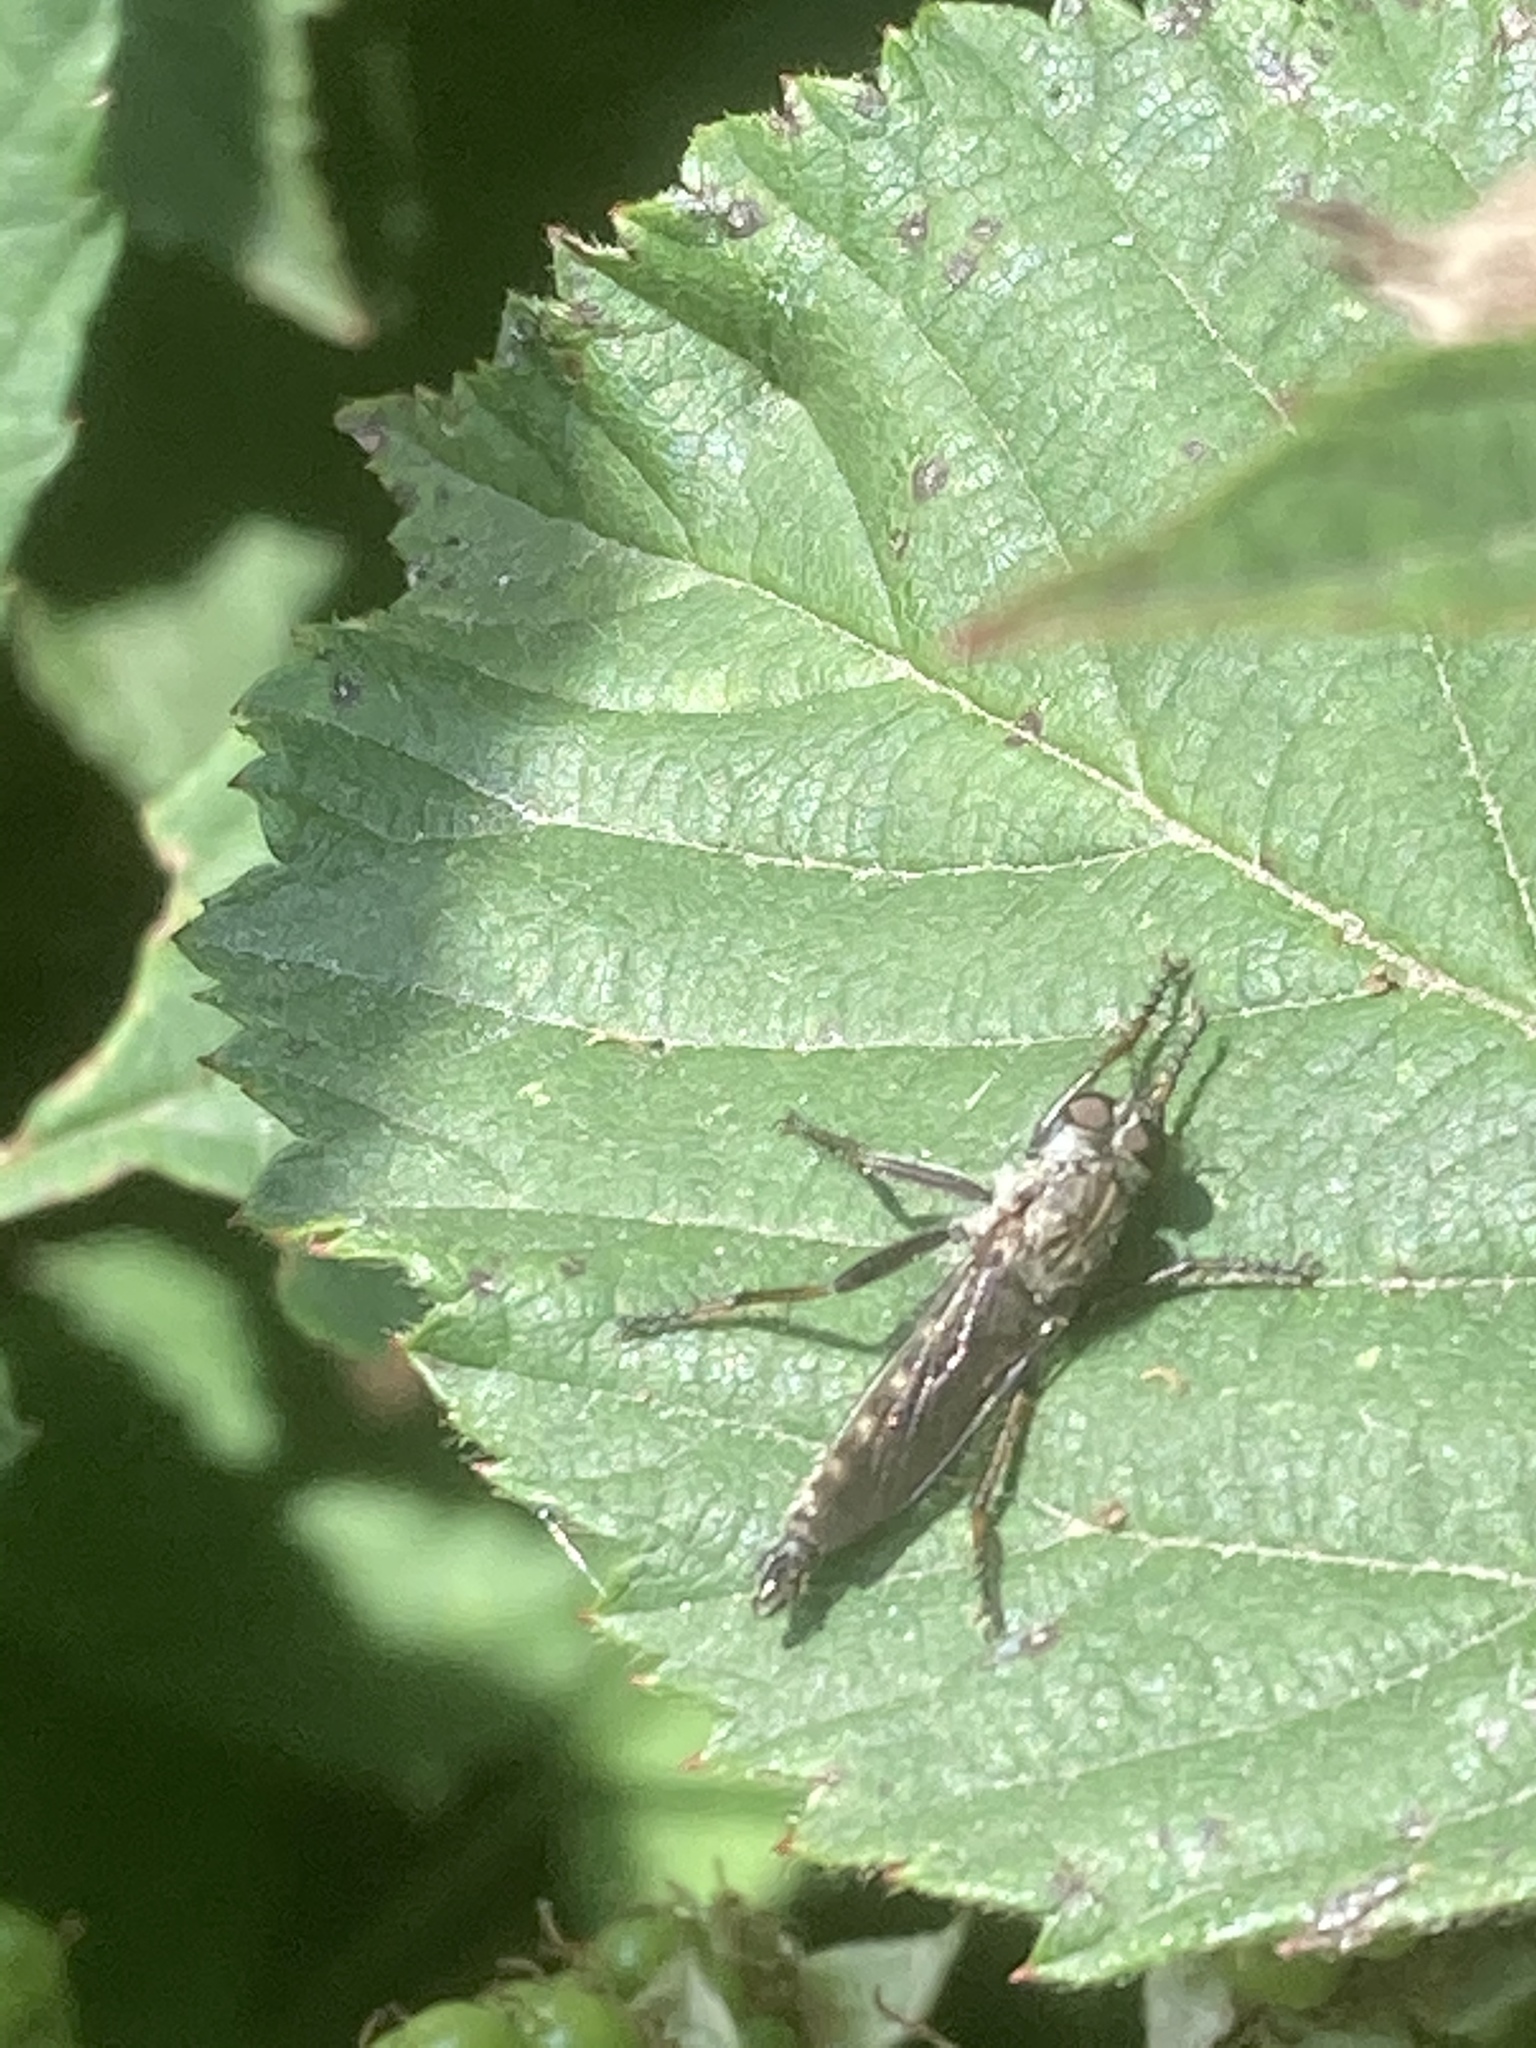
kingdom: Animalia
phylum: Arthropoda
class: Insecta
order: Diptera
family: Asilidae
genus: Machimus
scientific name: Machimus atricapillus
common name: Kite-tailed robberfly
